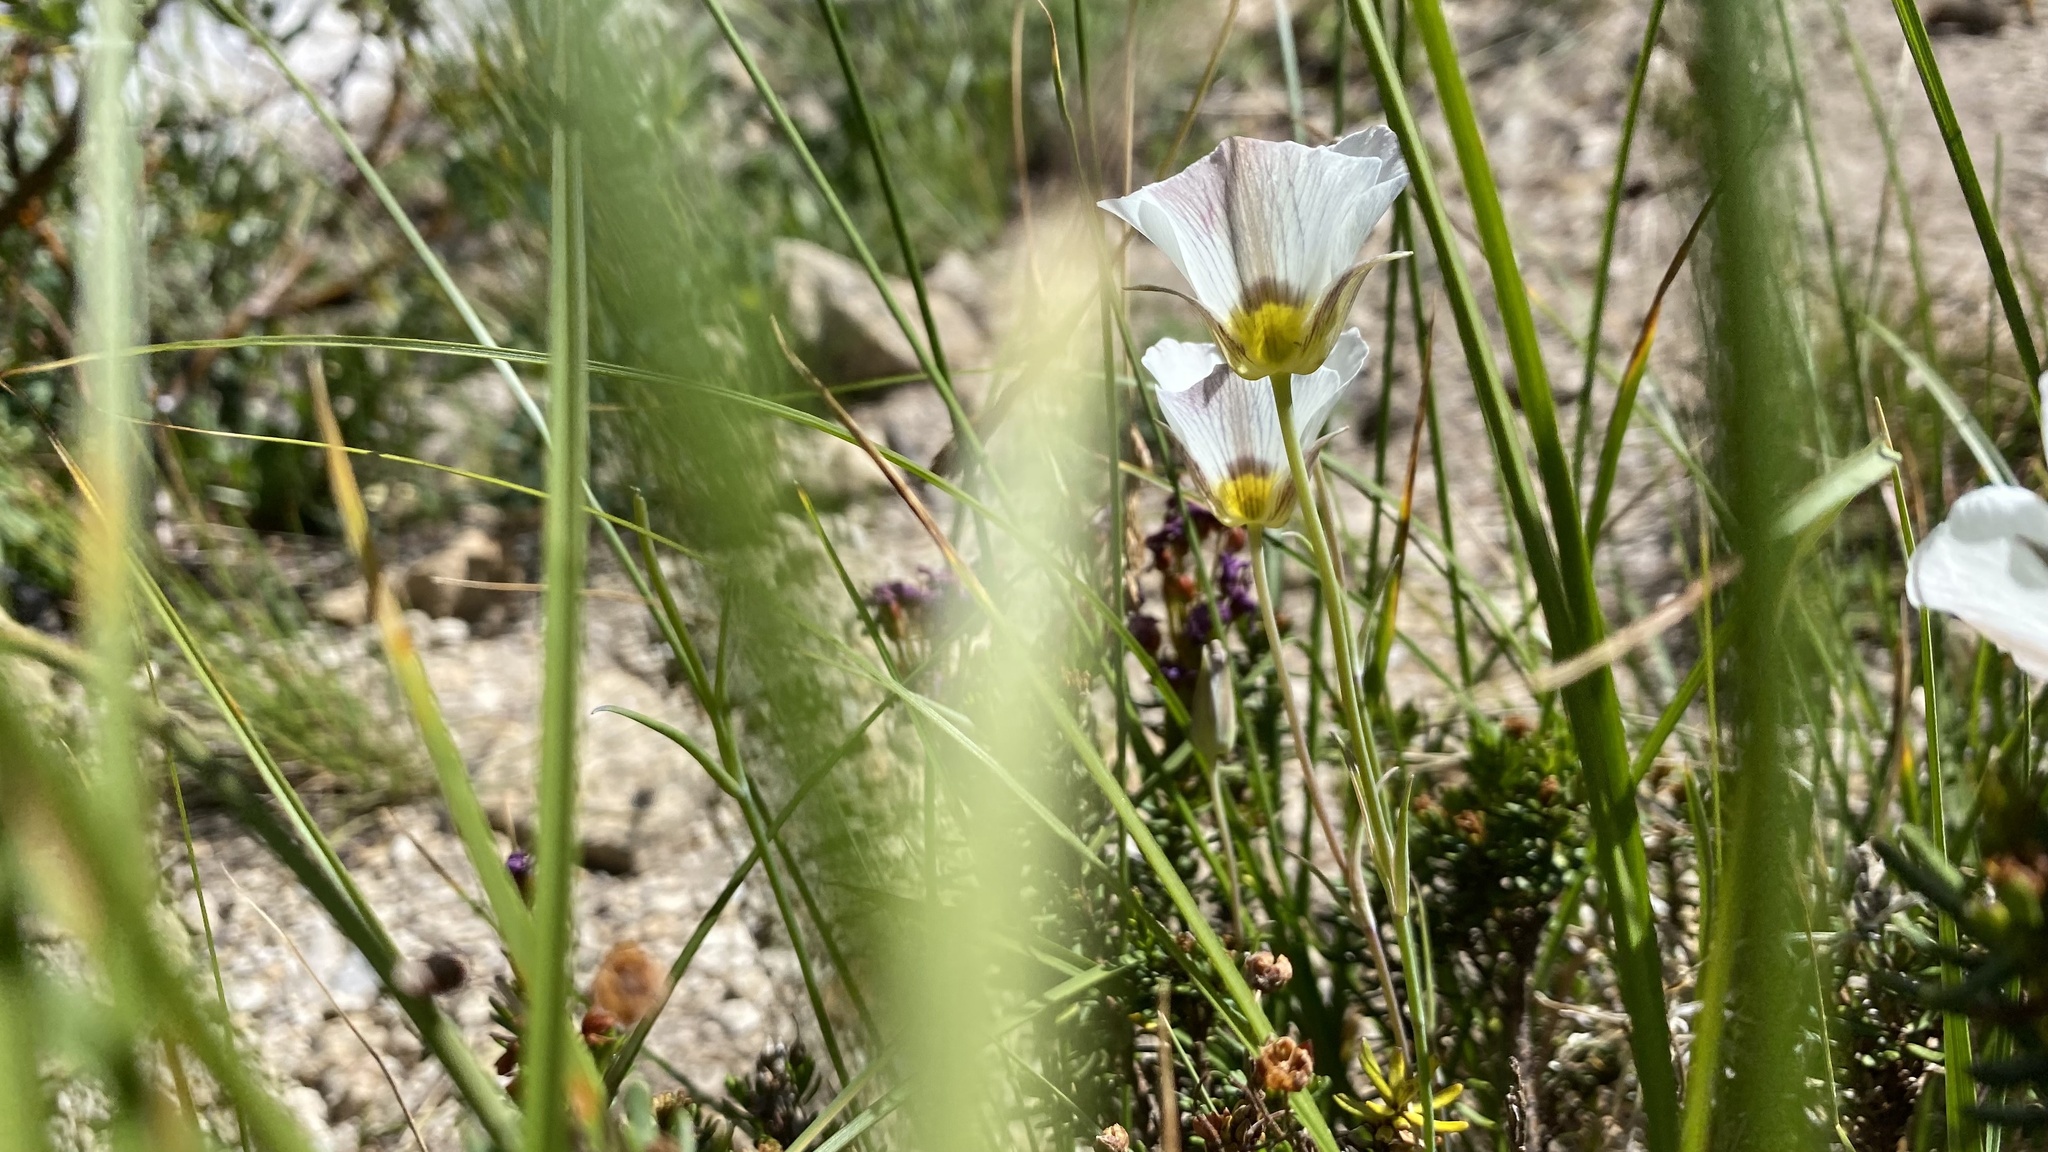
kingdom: Plantae
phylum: Tracheophyta
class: Liliopsida
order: Liliales
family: Liliaceae
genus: Calochortus
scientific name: Calochortus leichtlinii
